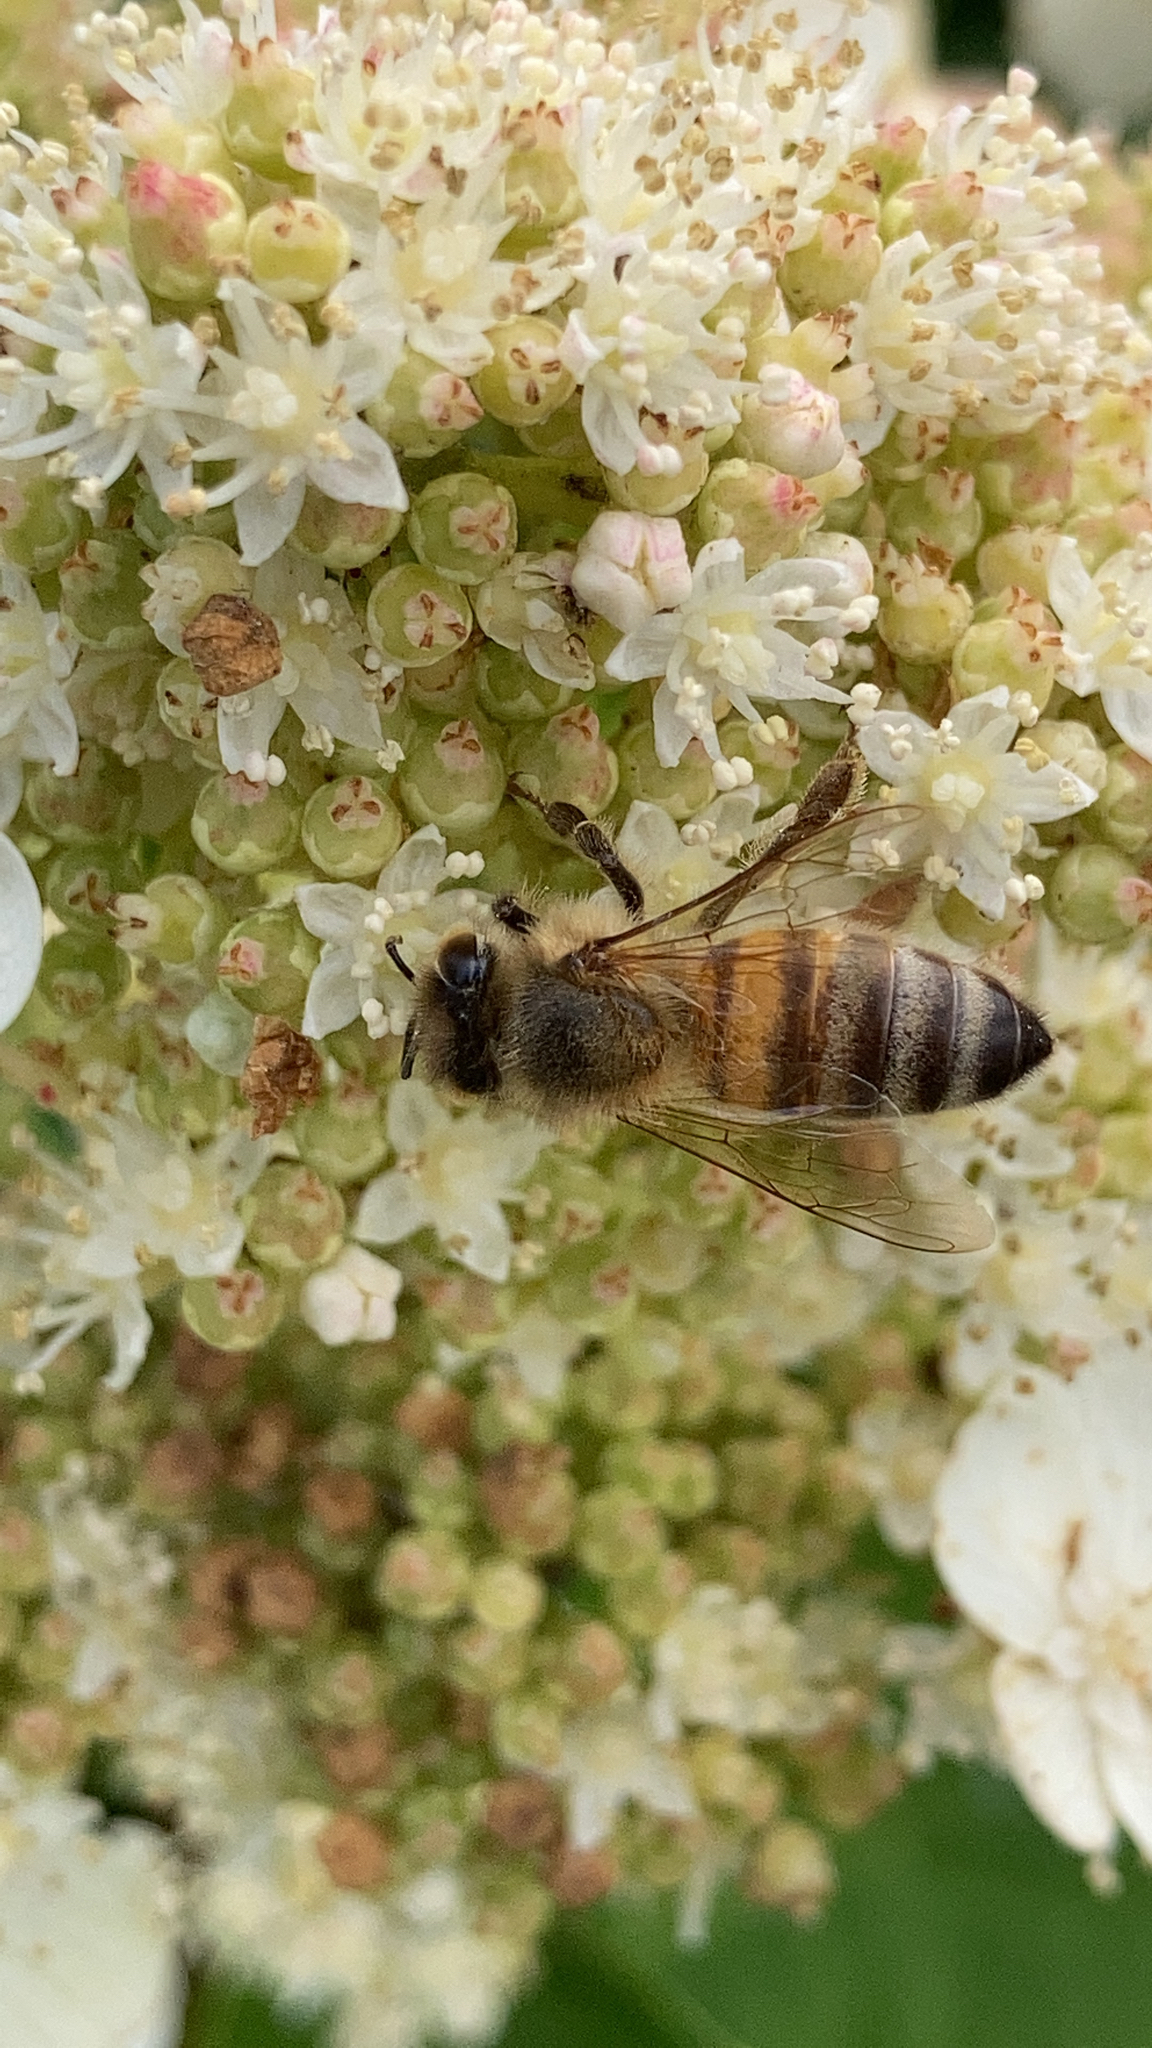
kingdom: Animalia
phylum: Arthropoda
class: Insecta
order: Hymenoptera
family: Apidae
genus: Apis
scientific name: Apis mellifera
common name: Honey bee
